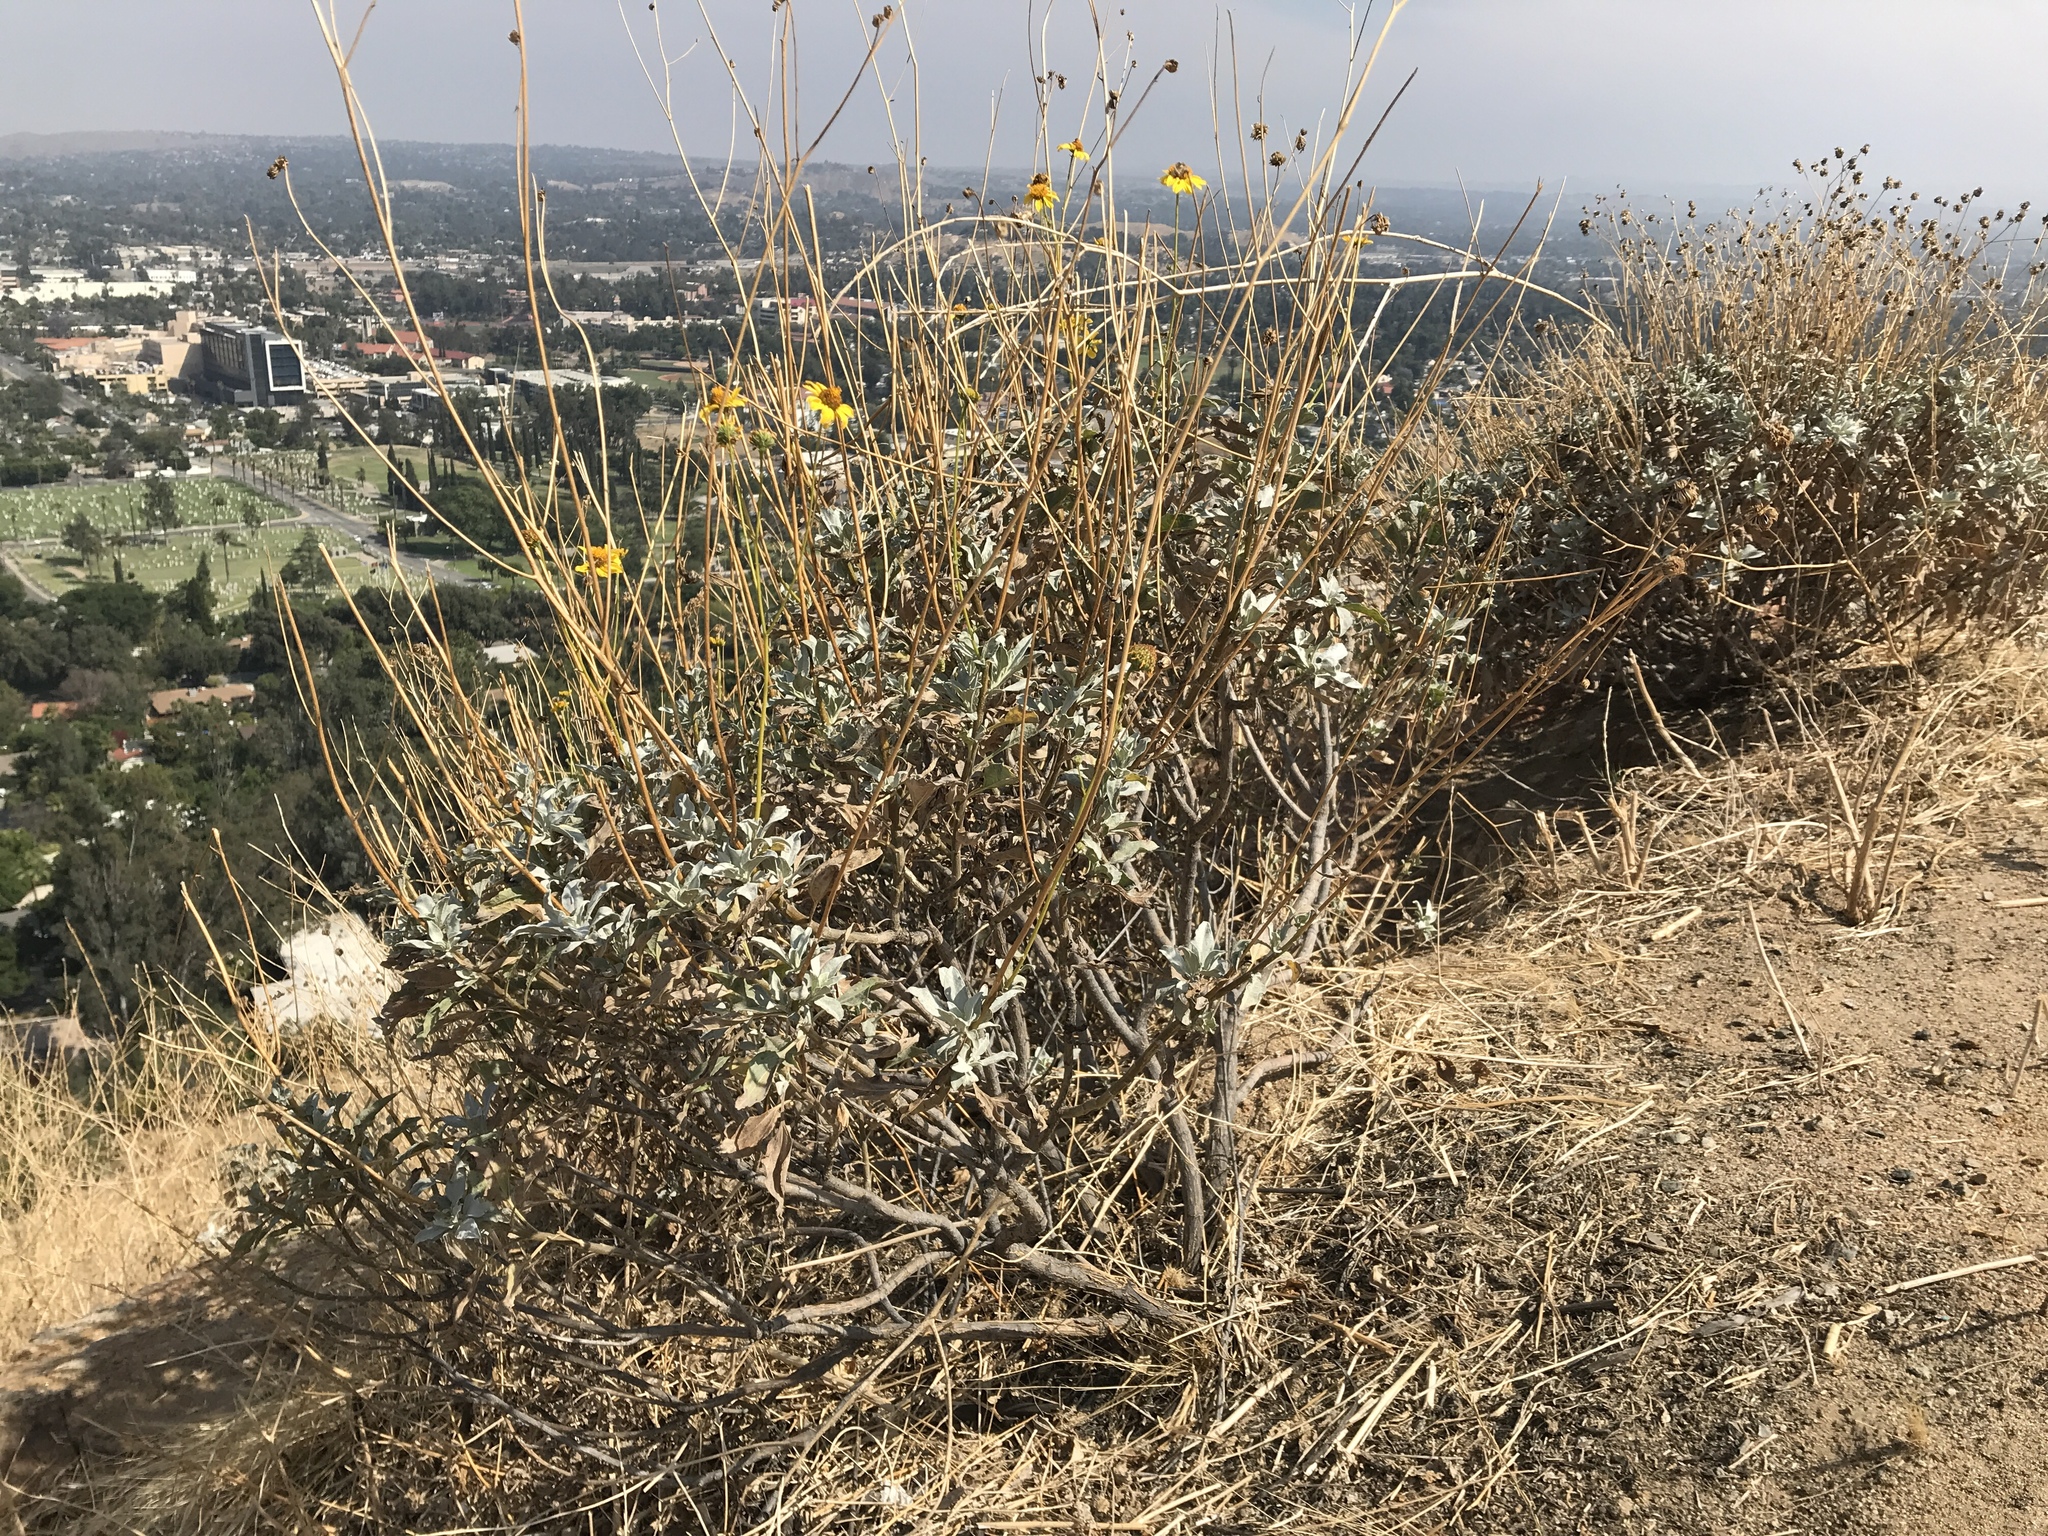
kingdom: Plantae
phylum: Tracheophyta
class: Magnoliopsida
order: Asterales
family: Asteraceae
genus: Encelia
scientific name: Encelia farinosa
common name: Brittlebush
